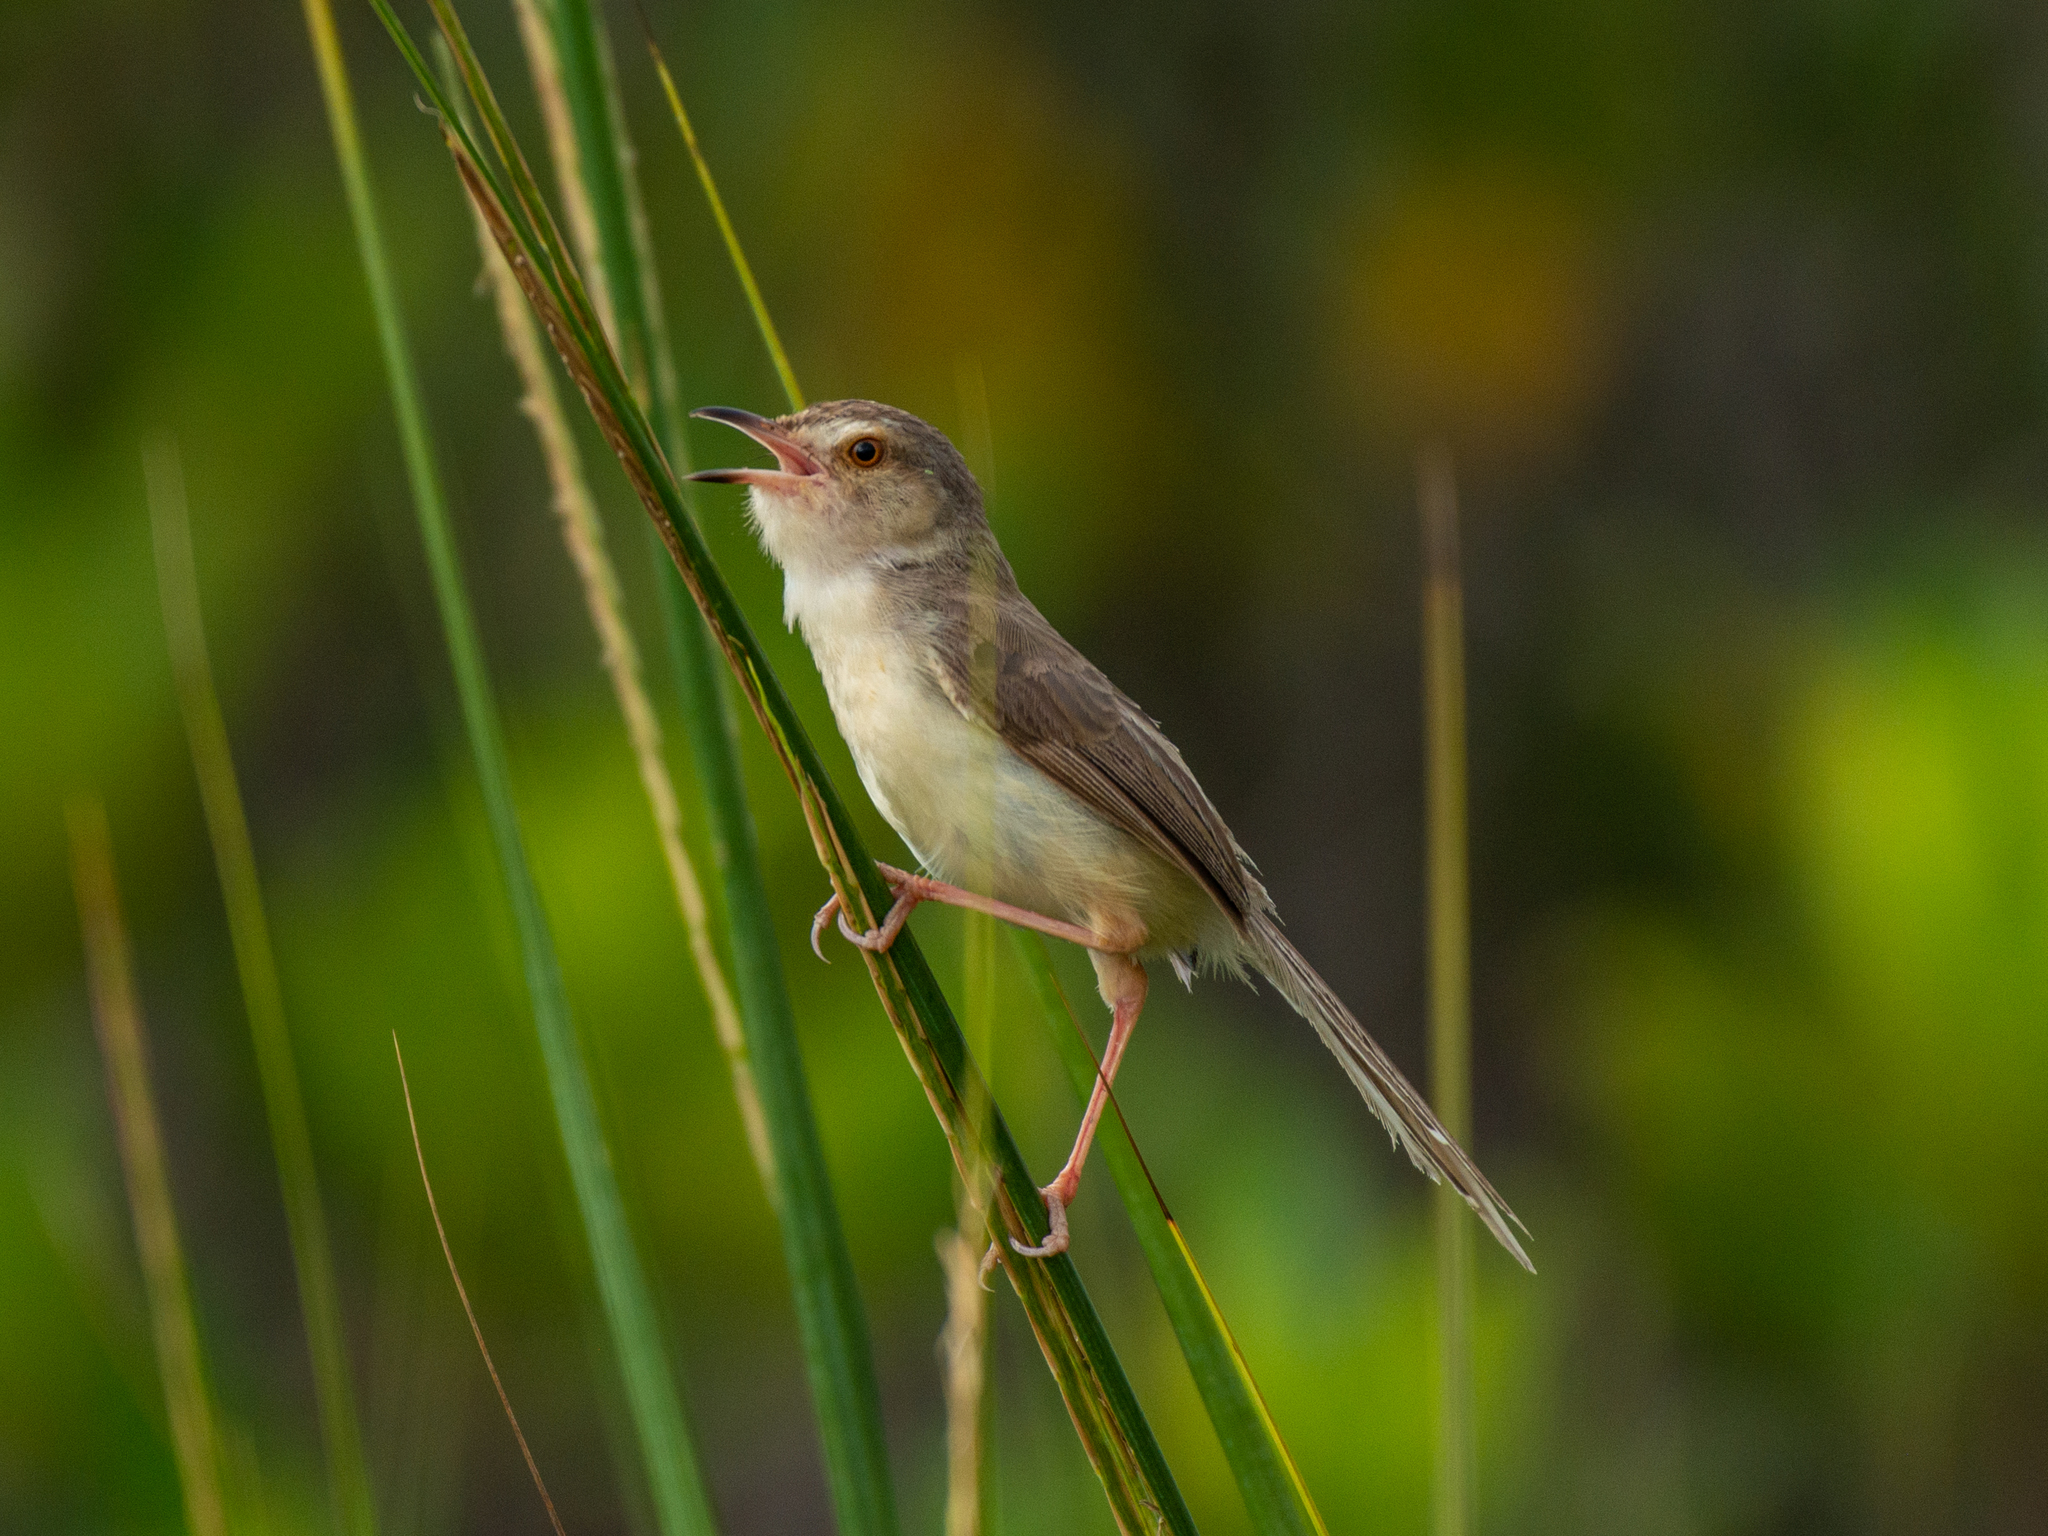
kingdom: Animalia
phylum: Chordata
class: Aves
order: Passeriformes
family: Cisticolidae
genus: Prinia
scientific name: Prinia inornata
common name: Plain prinia
